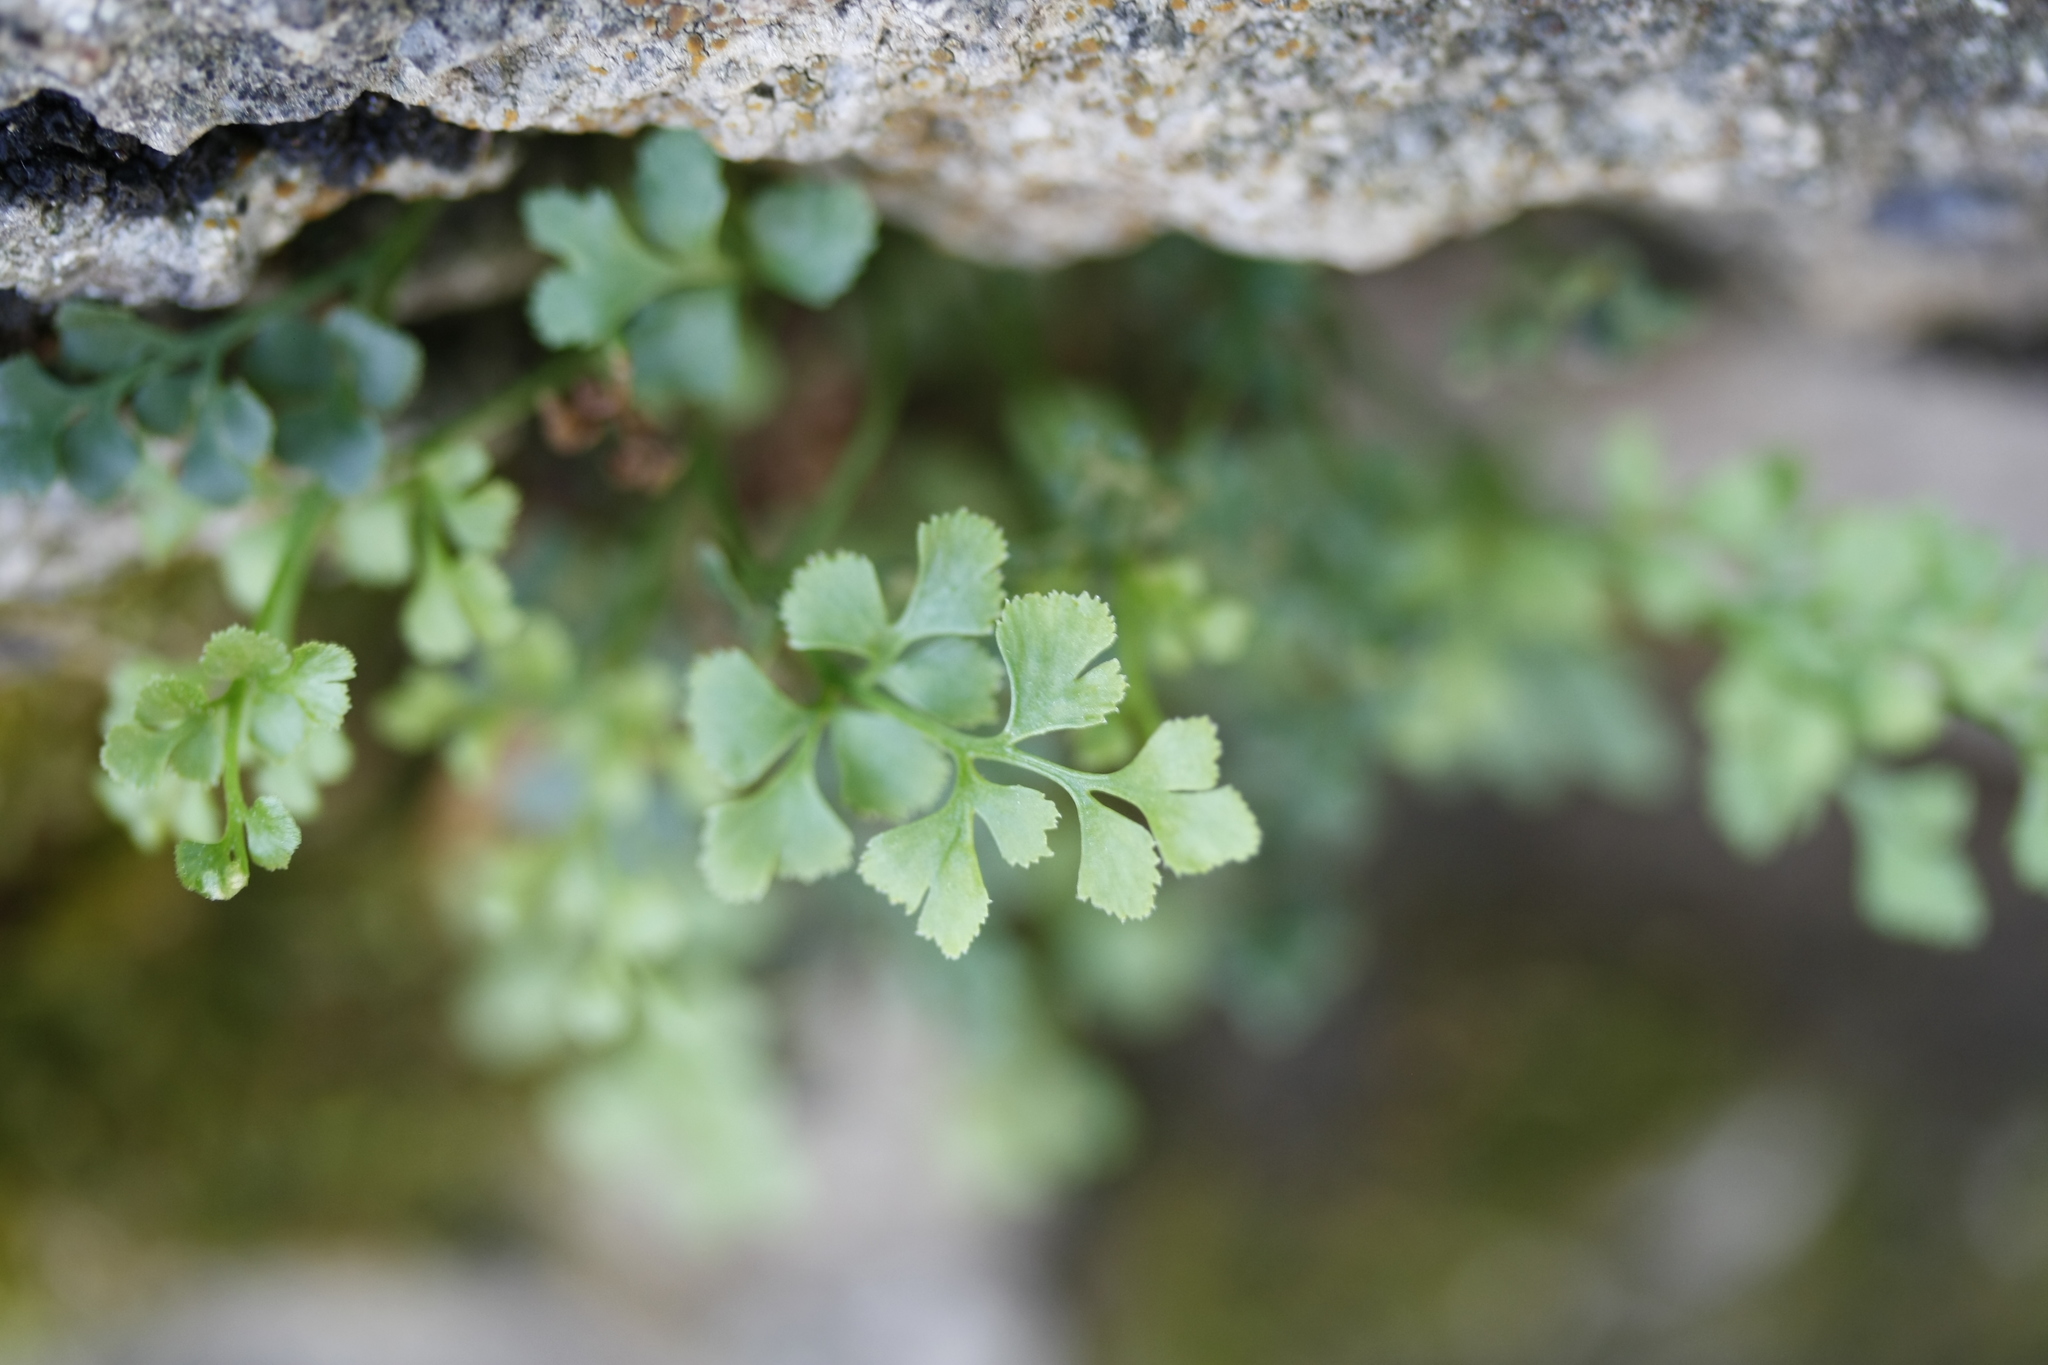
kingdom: Plantae
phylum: Tracheophyta
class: Polypodiopsida
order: Polypodiales
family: Aspleniaceae
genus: Asplenium
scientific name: Asplenium ruta-muraria
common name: Wall-rue
